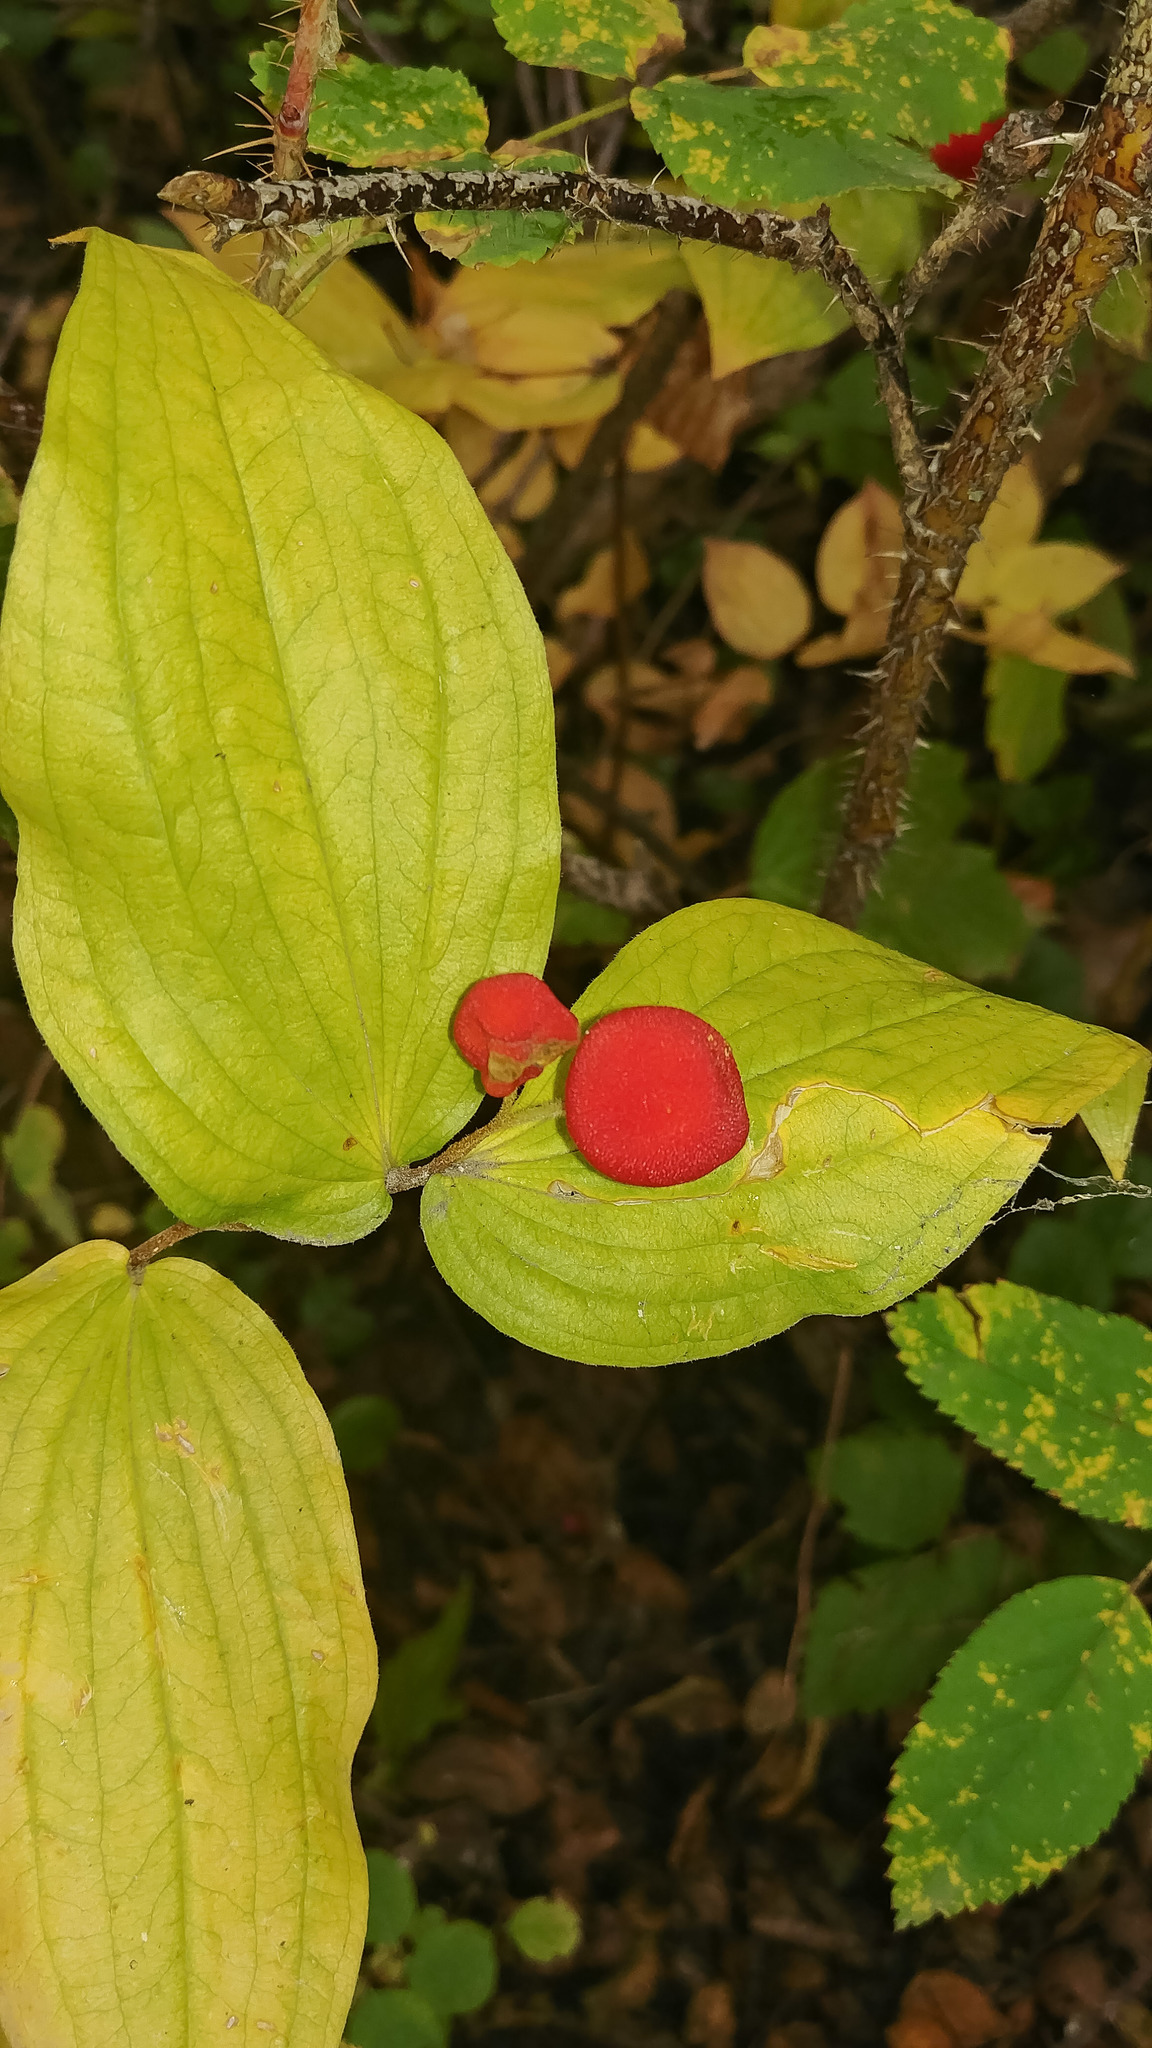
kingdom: Plantae
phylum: Tracheophyta
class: Liliopsida
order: Liliales
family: Liliaceae
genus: Prosartes
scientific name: Prosartes trachycarpa
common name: Rough-fruit fairy-bells
